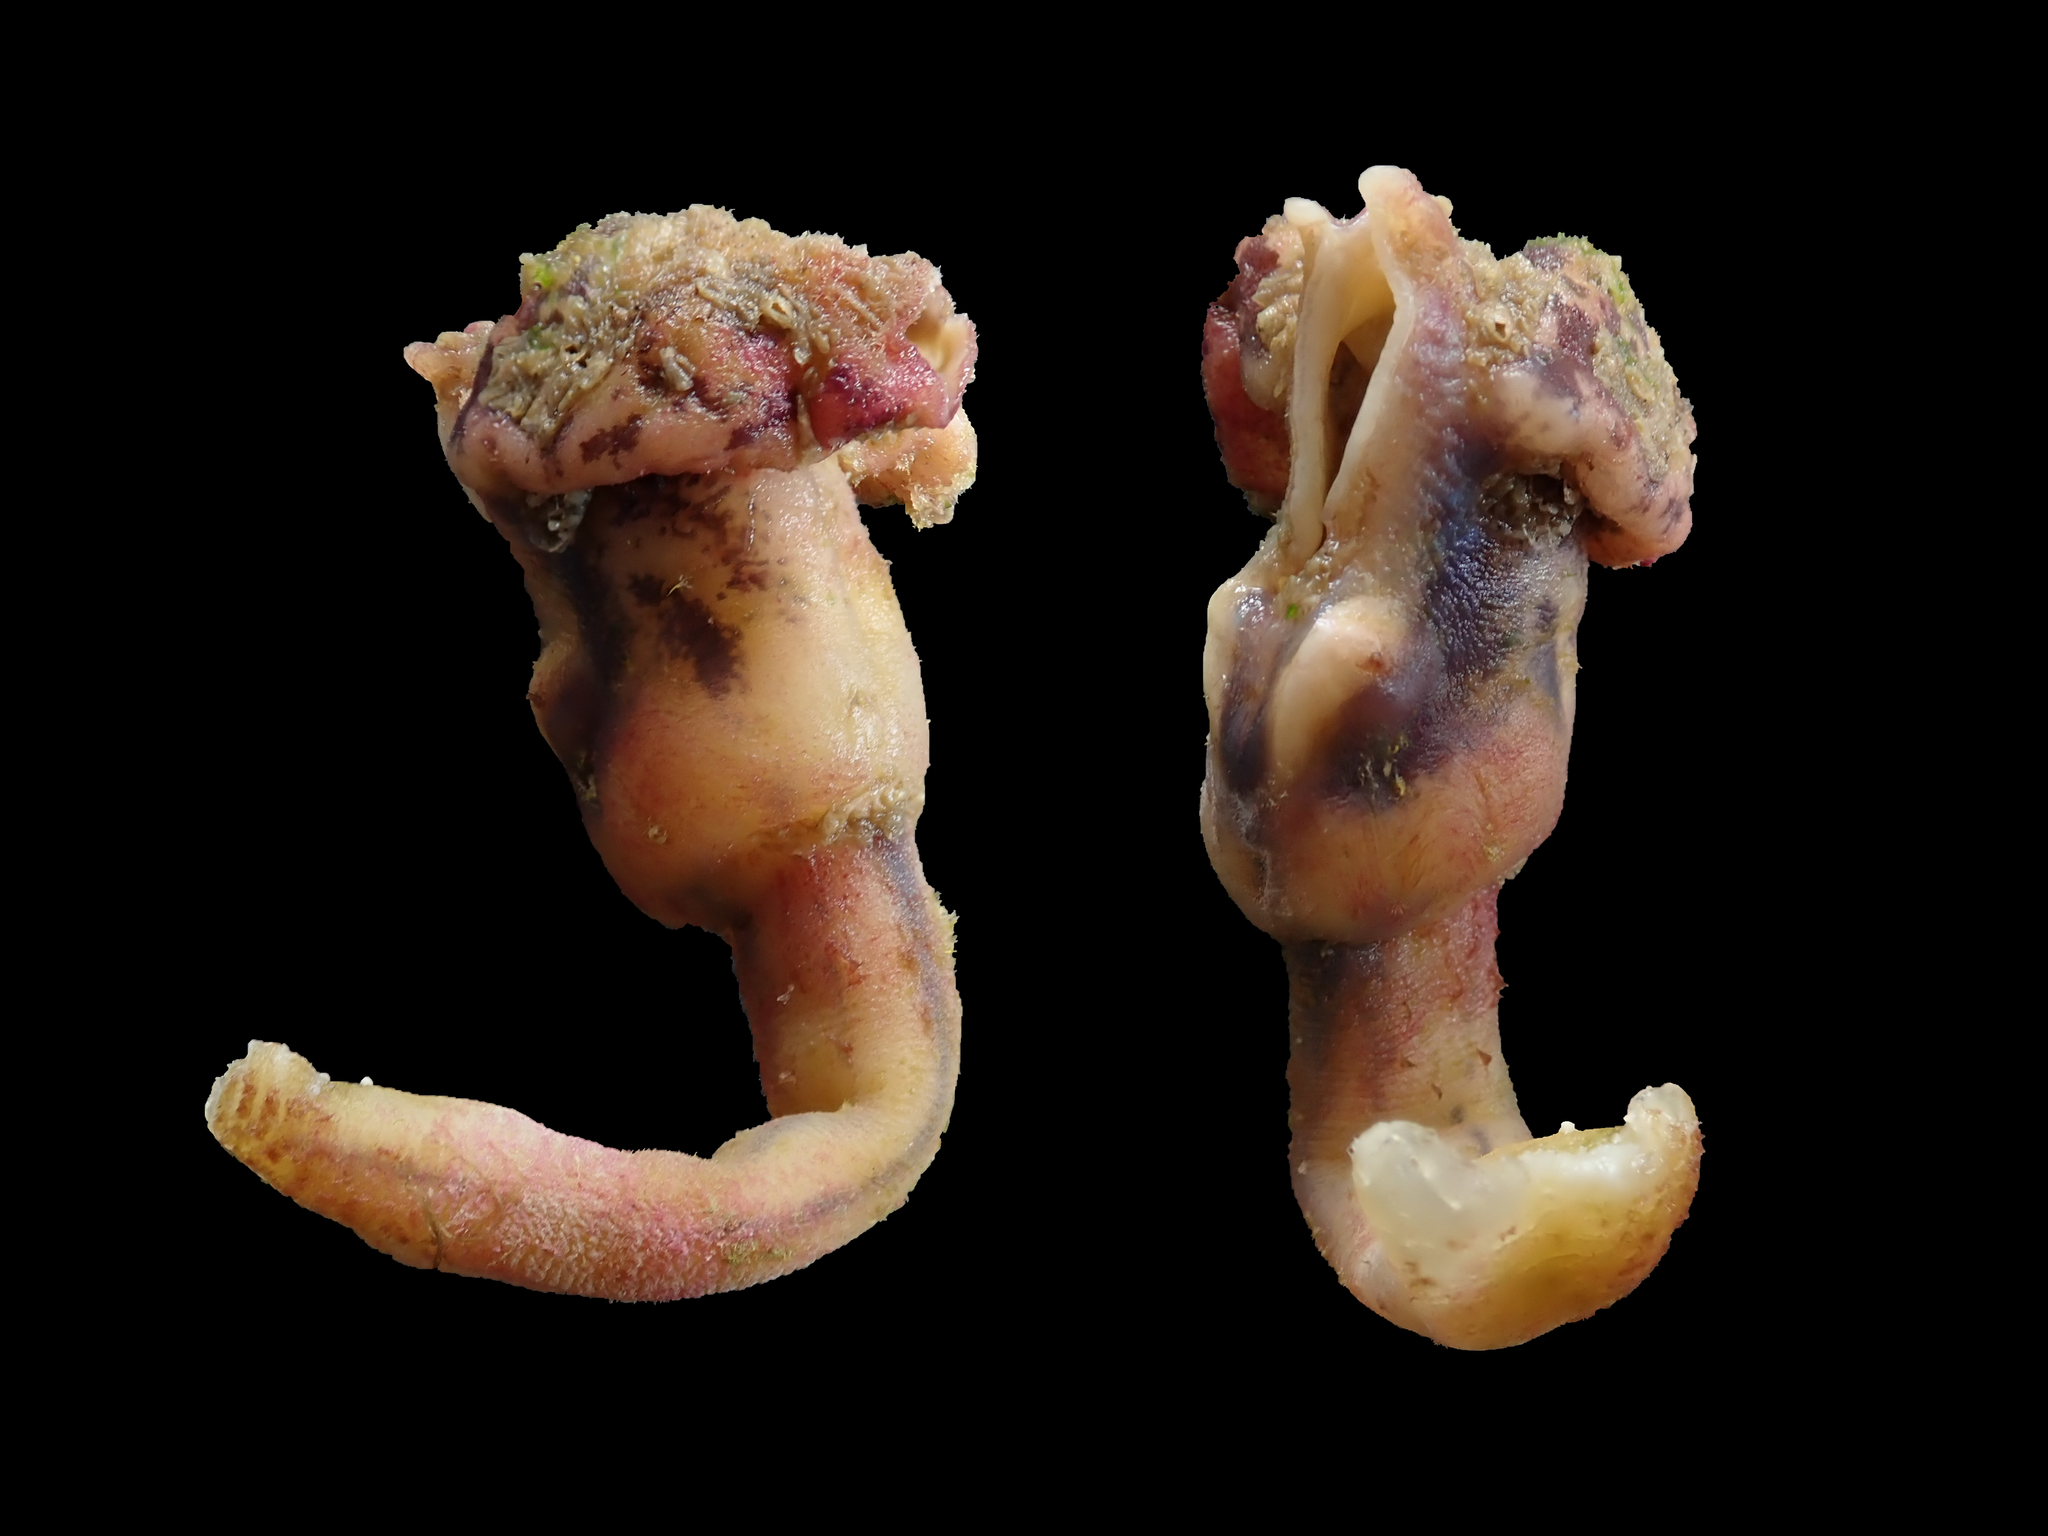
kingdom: Animalia
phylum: Arthropoda
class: Maxillopoda
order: Pedunculata
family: Lepadidae
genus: Conchoderma
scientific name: Conchoderma auritum
